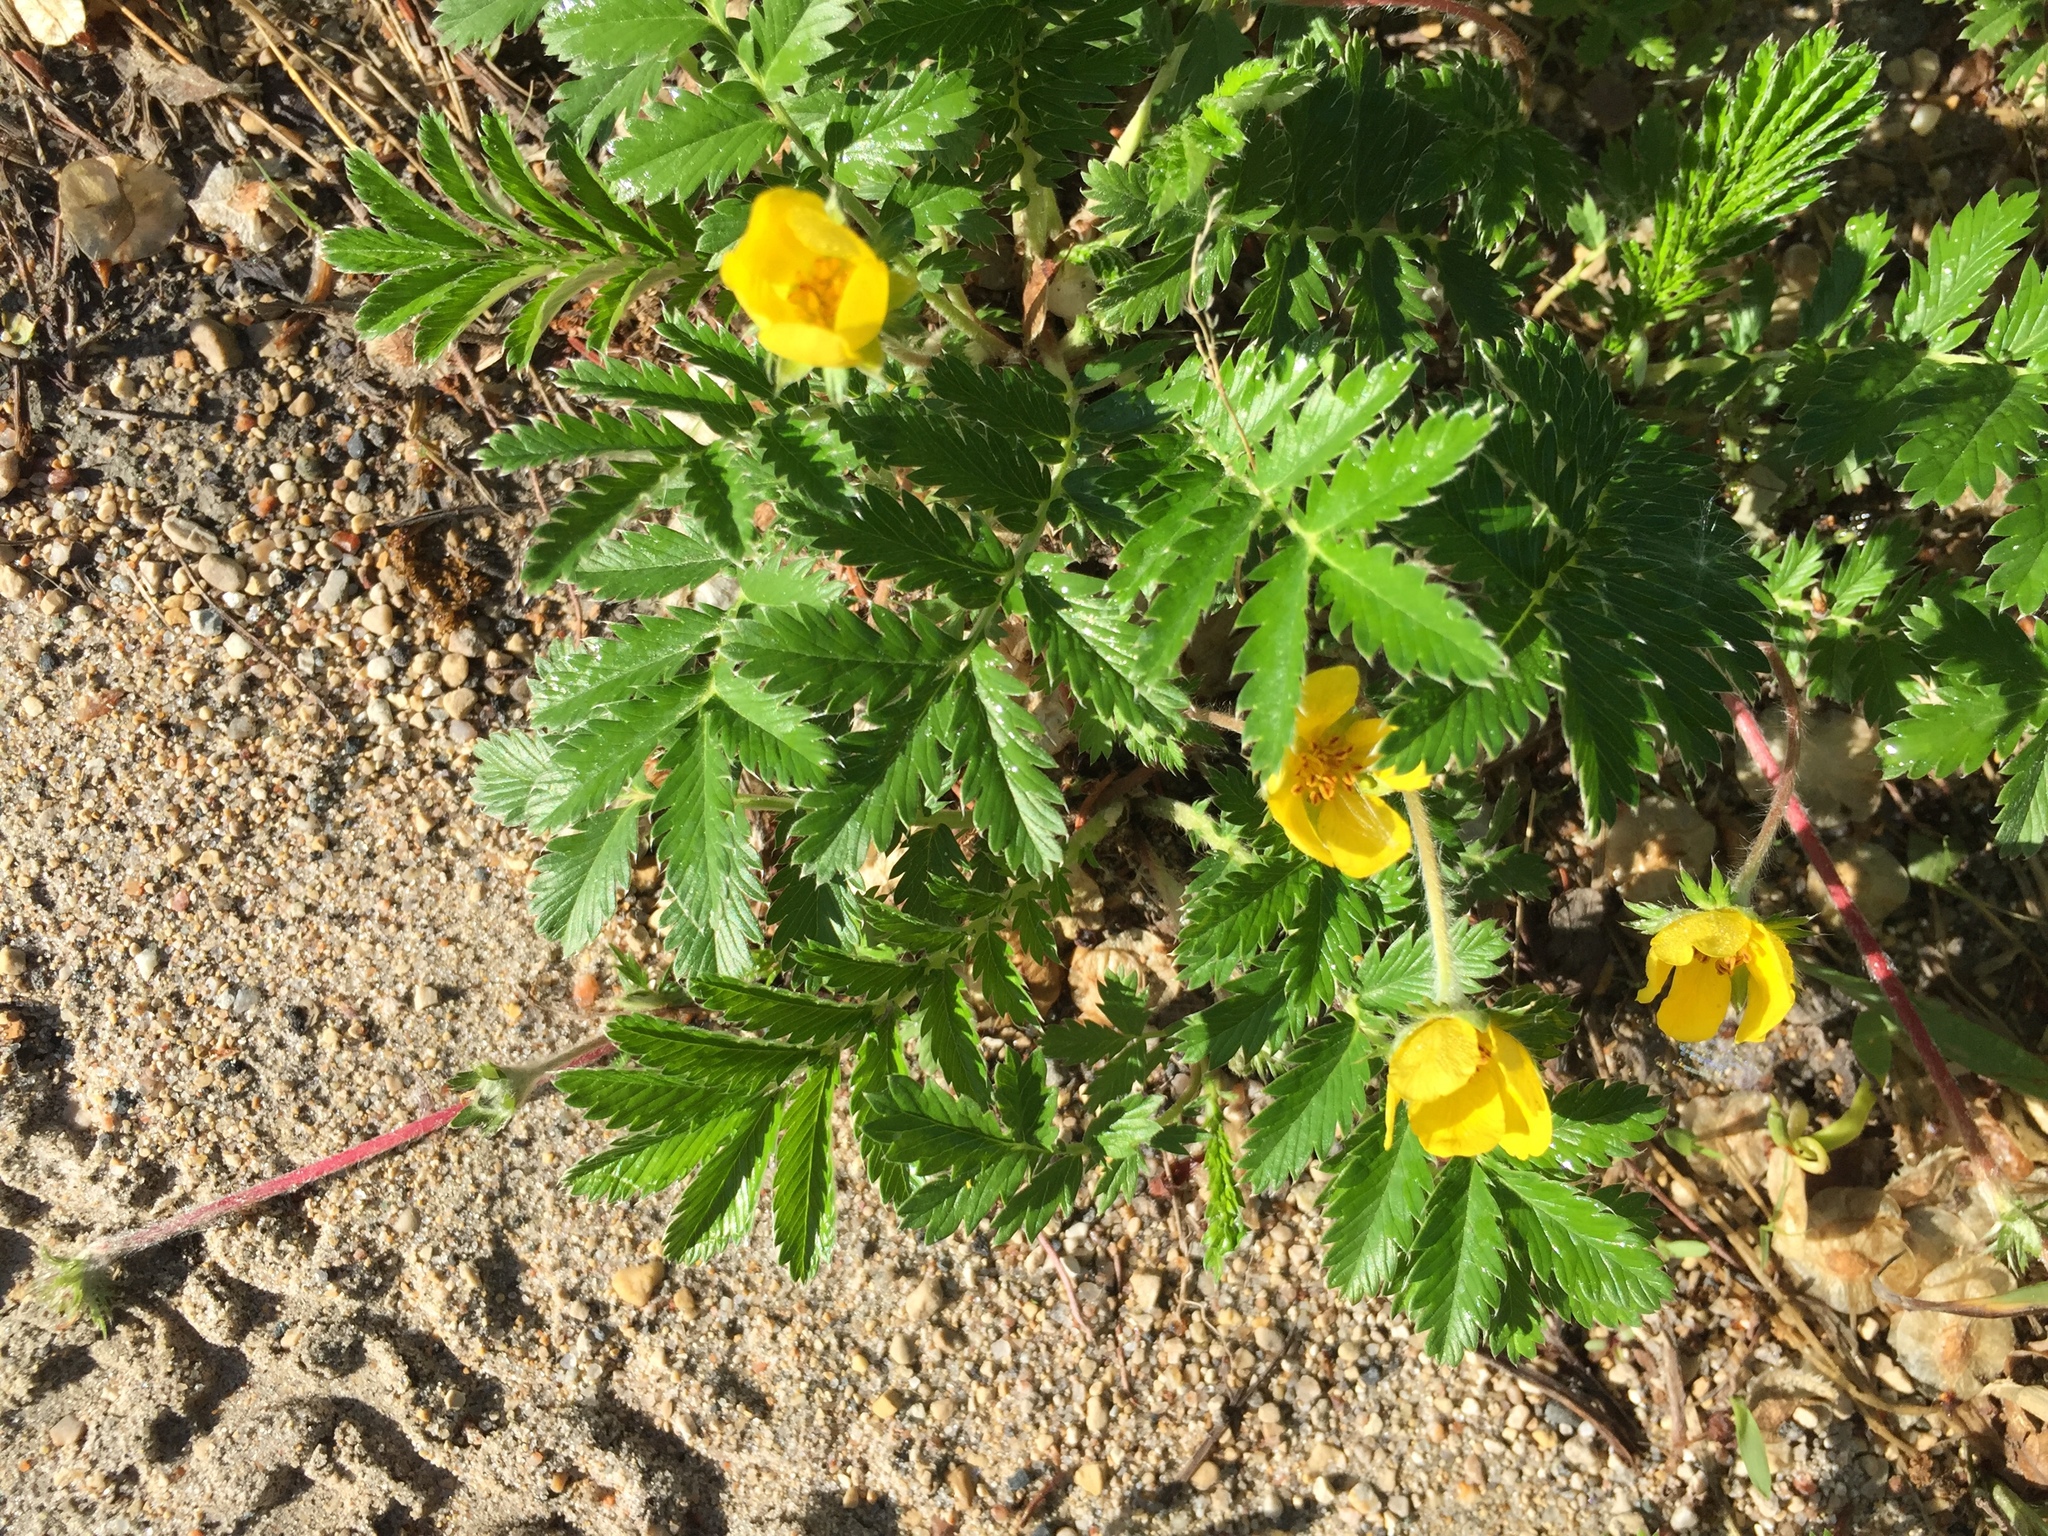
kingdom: Plantae
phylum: Tracheophyta
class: Magnoliopsida
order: Rosales
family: Rosaceae
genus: Argentina
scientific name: Argentina anserina
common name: Common silverweed
